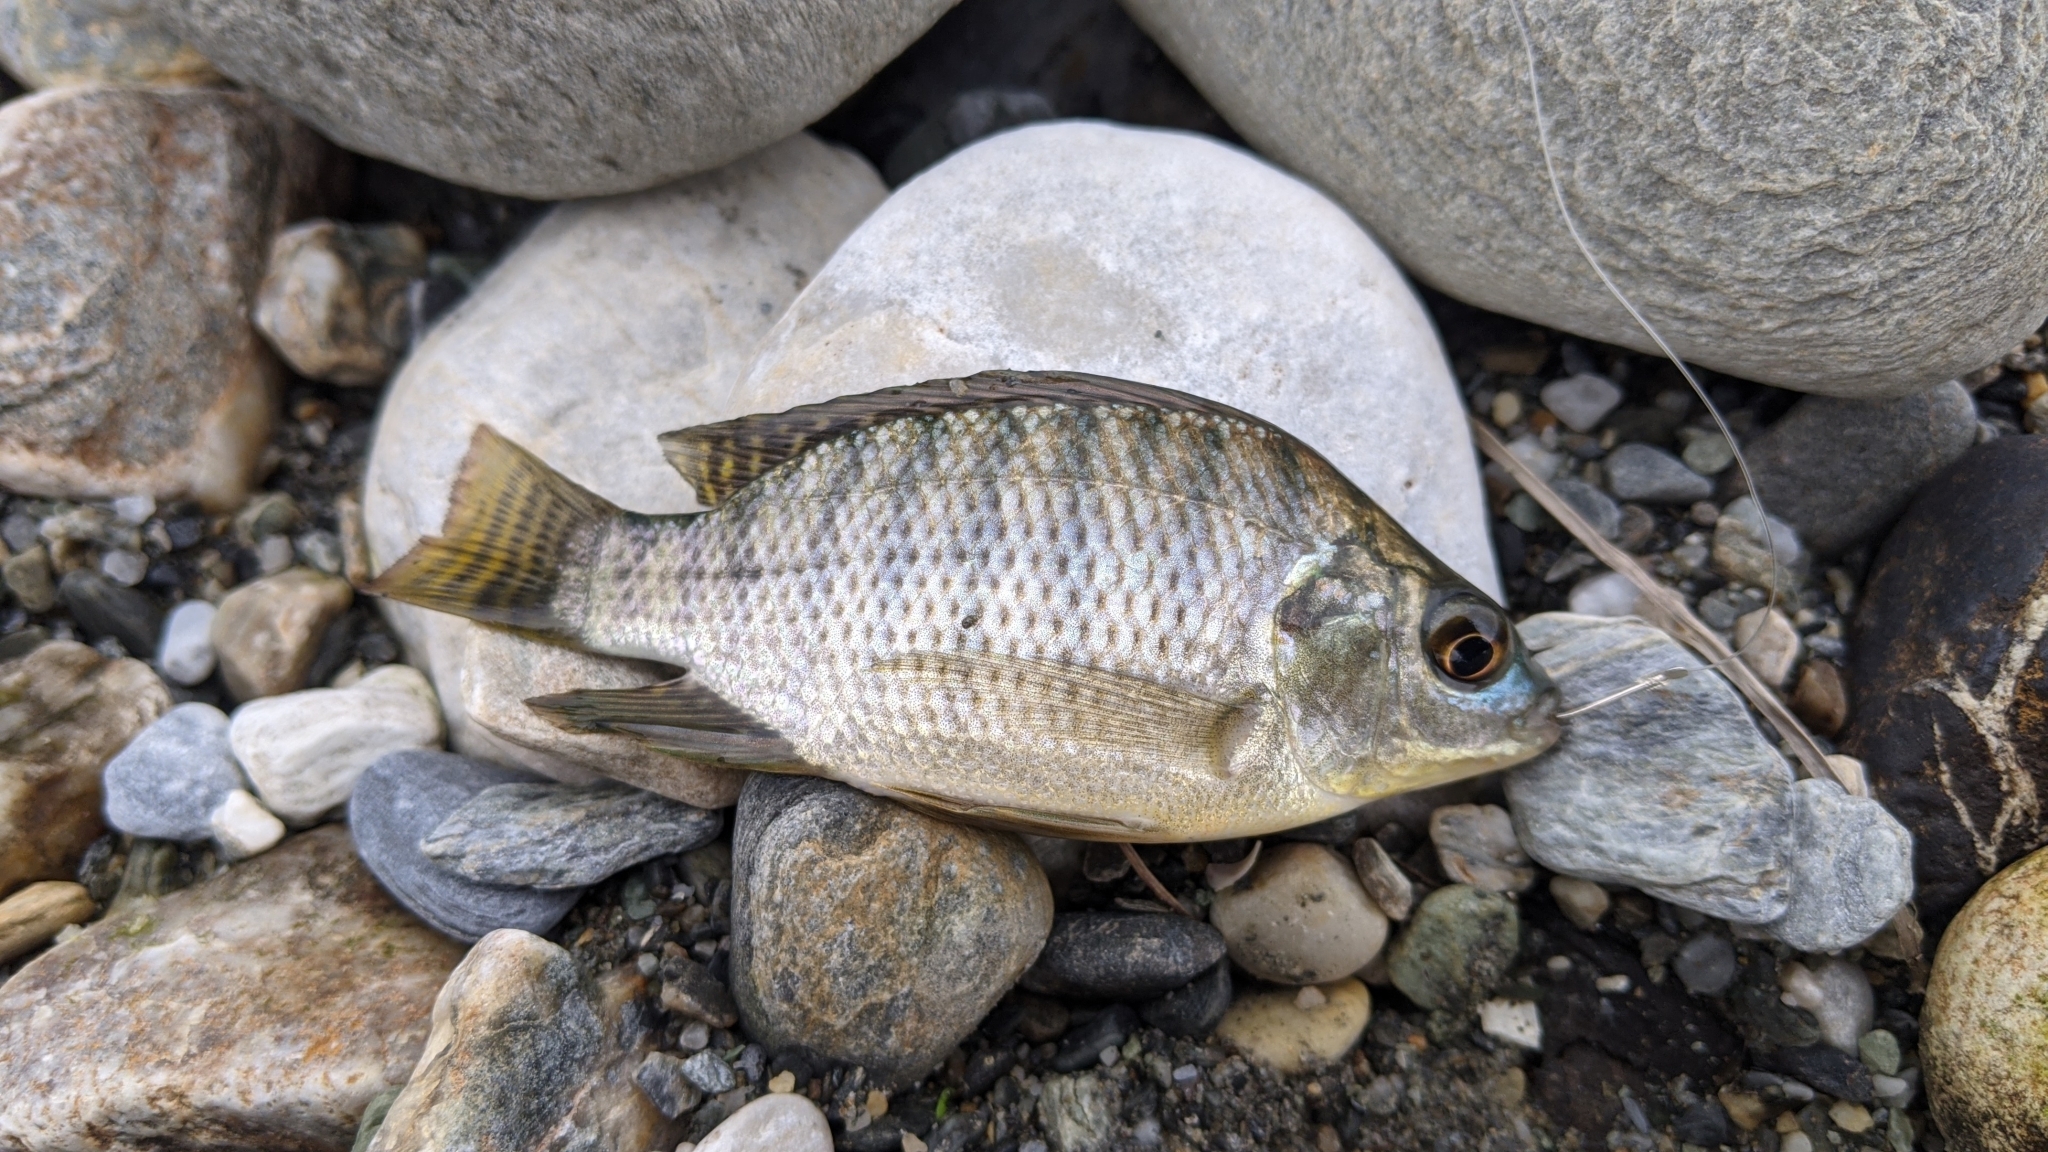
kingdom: Animalia
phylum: Chordata
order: Perciformes
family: Cichlidae
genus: Oreochromis
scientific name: Oreochromis niloticus
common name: Nile tilapia
